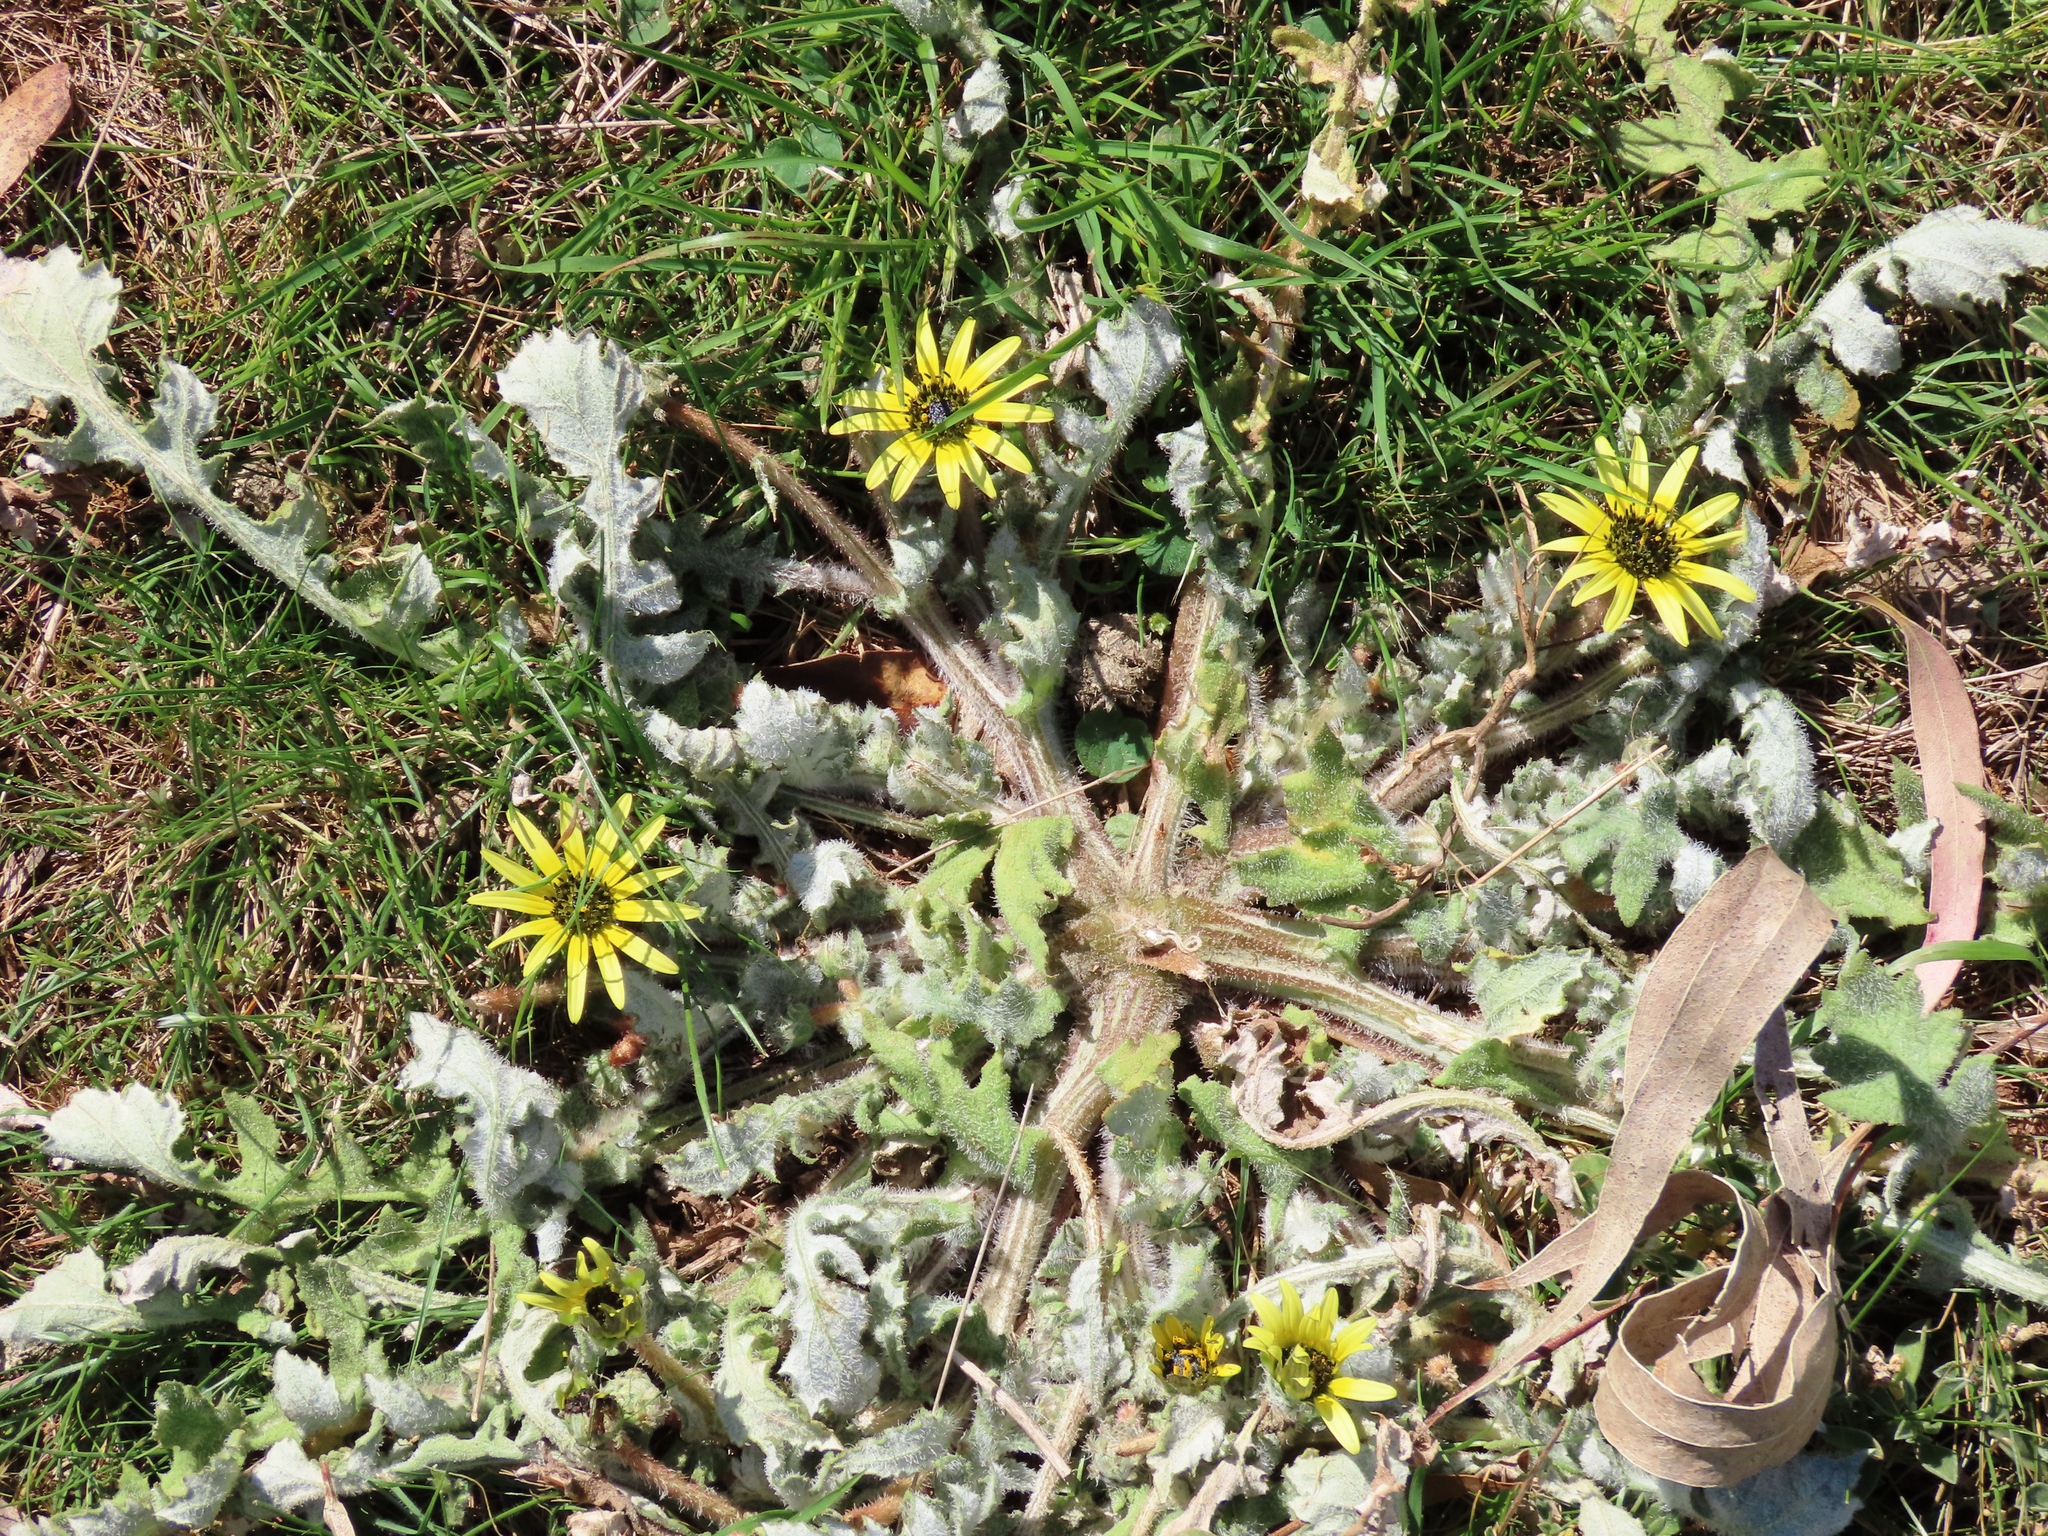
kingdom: Plantae
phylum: Tracheophyta
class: Magnoliopsida
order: Asterales
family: Asteraceae
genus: Arctotheca
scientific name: Arctotheca calendula
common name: Capeweed
